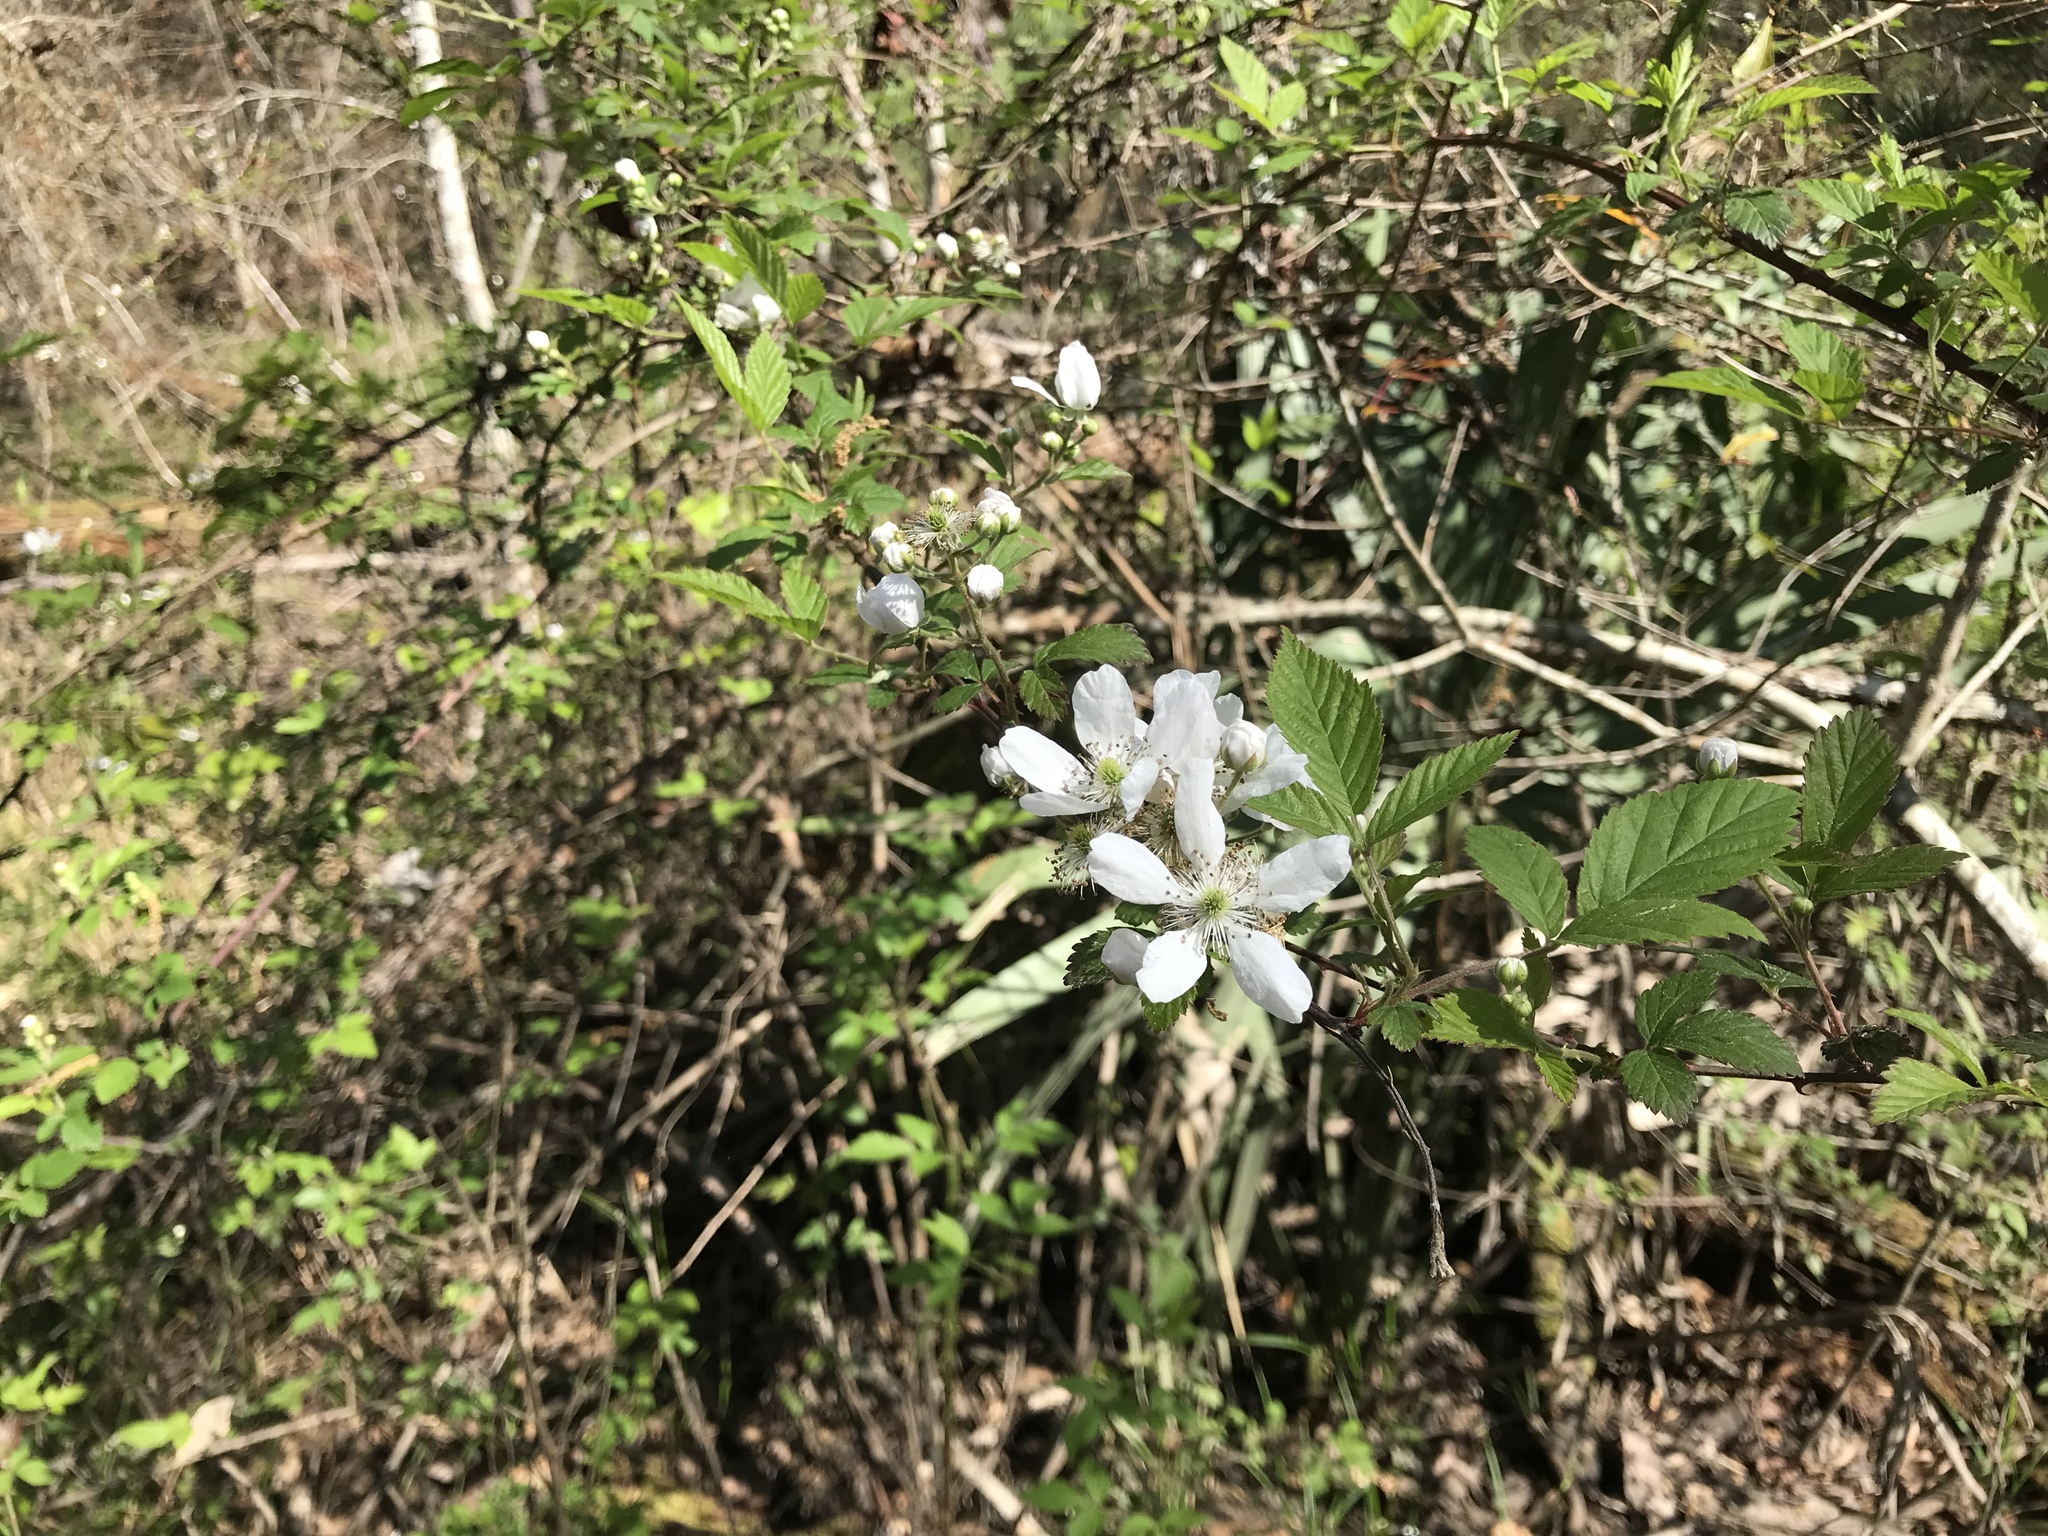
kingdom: Plantae
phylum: Tracheophyta
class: Magnoliopsida
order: Rosales
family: Rosaceae
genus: Rubus
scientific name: Rubus pensilvanicus
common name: Pennsylvania blackberry
